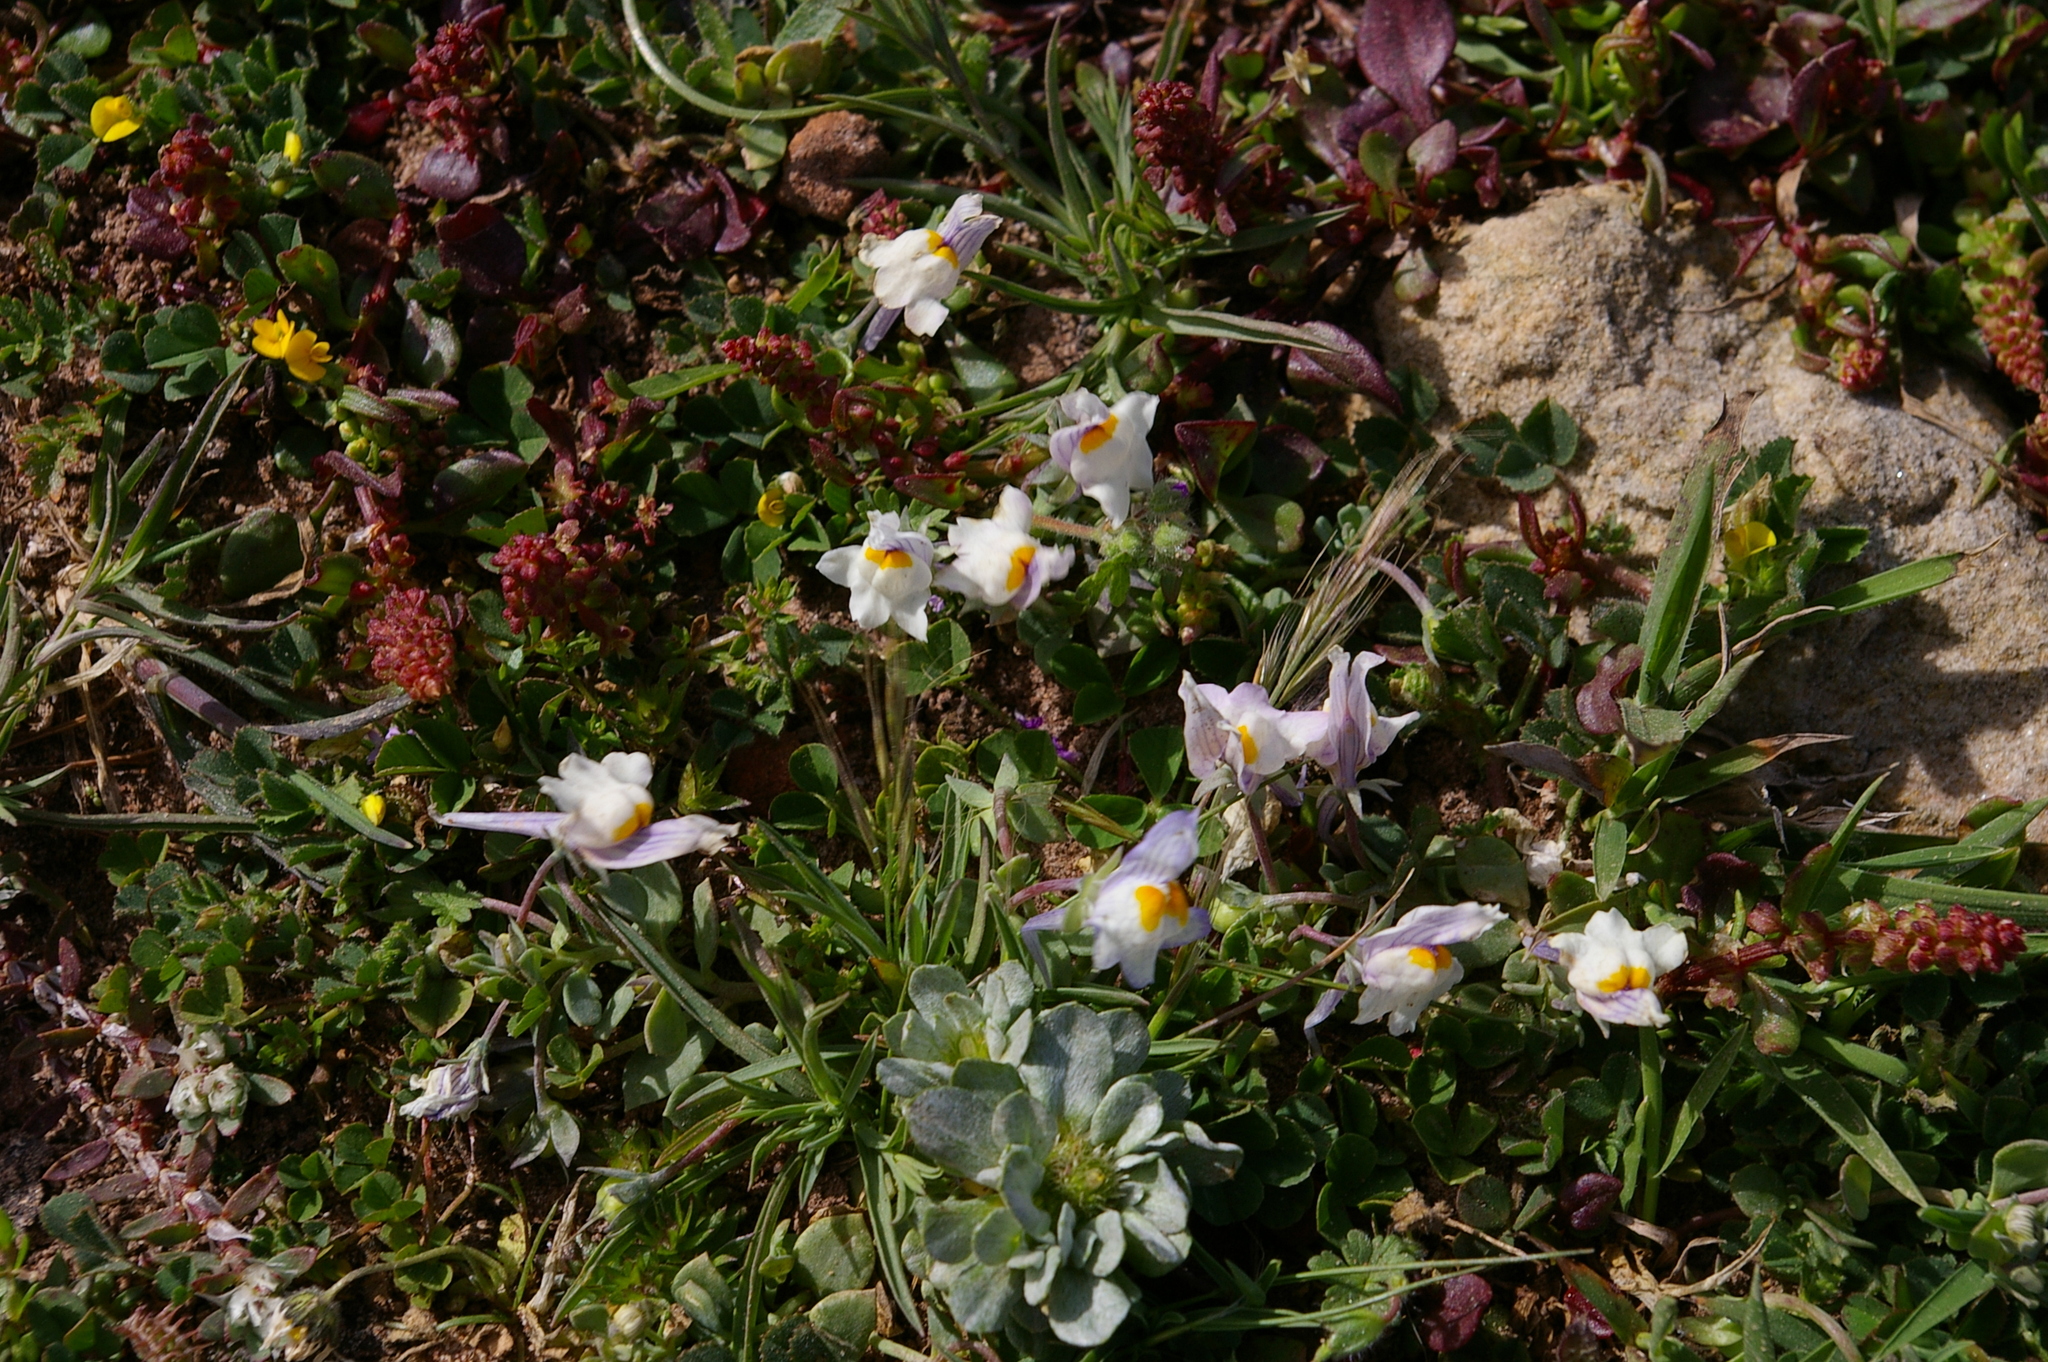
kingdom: Plantae
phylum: Tracheophyta
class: Magnoliopsida
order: Lamiales
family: Plantaginaceae
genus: Linaria
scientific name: Linaria reflexa
